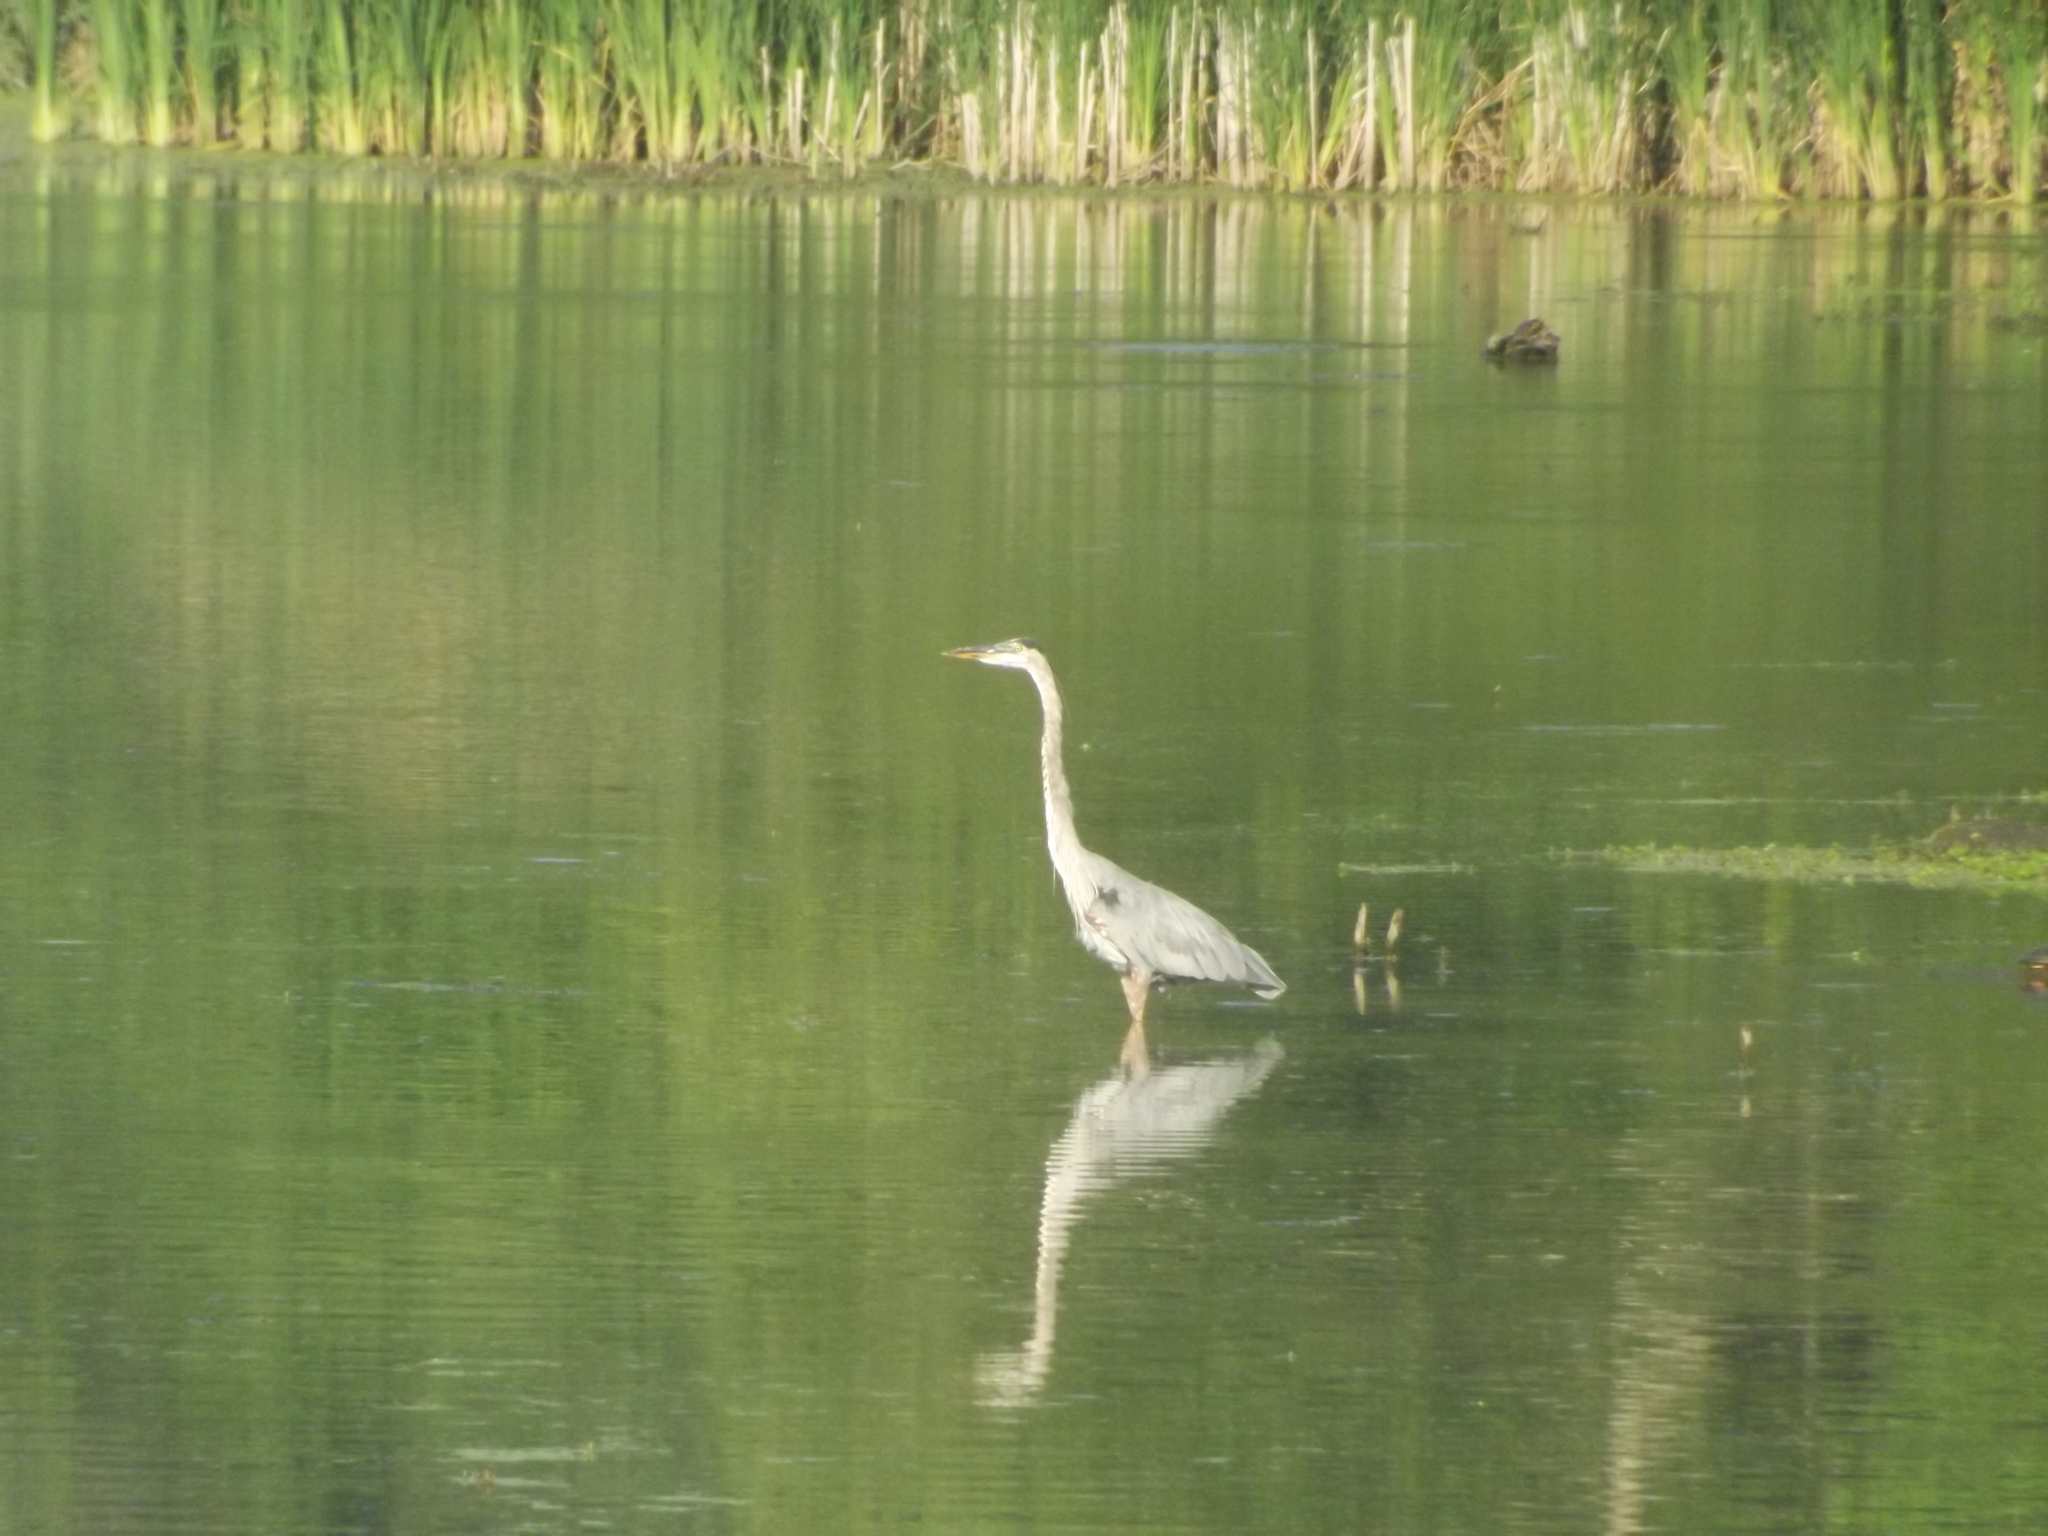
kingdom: Animalia
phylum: Chordata
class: Aves
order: Pelecaniformes
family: Ardeidae
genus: Ardea
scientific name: Ardea herodias
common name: Great blue heron
